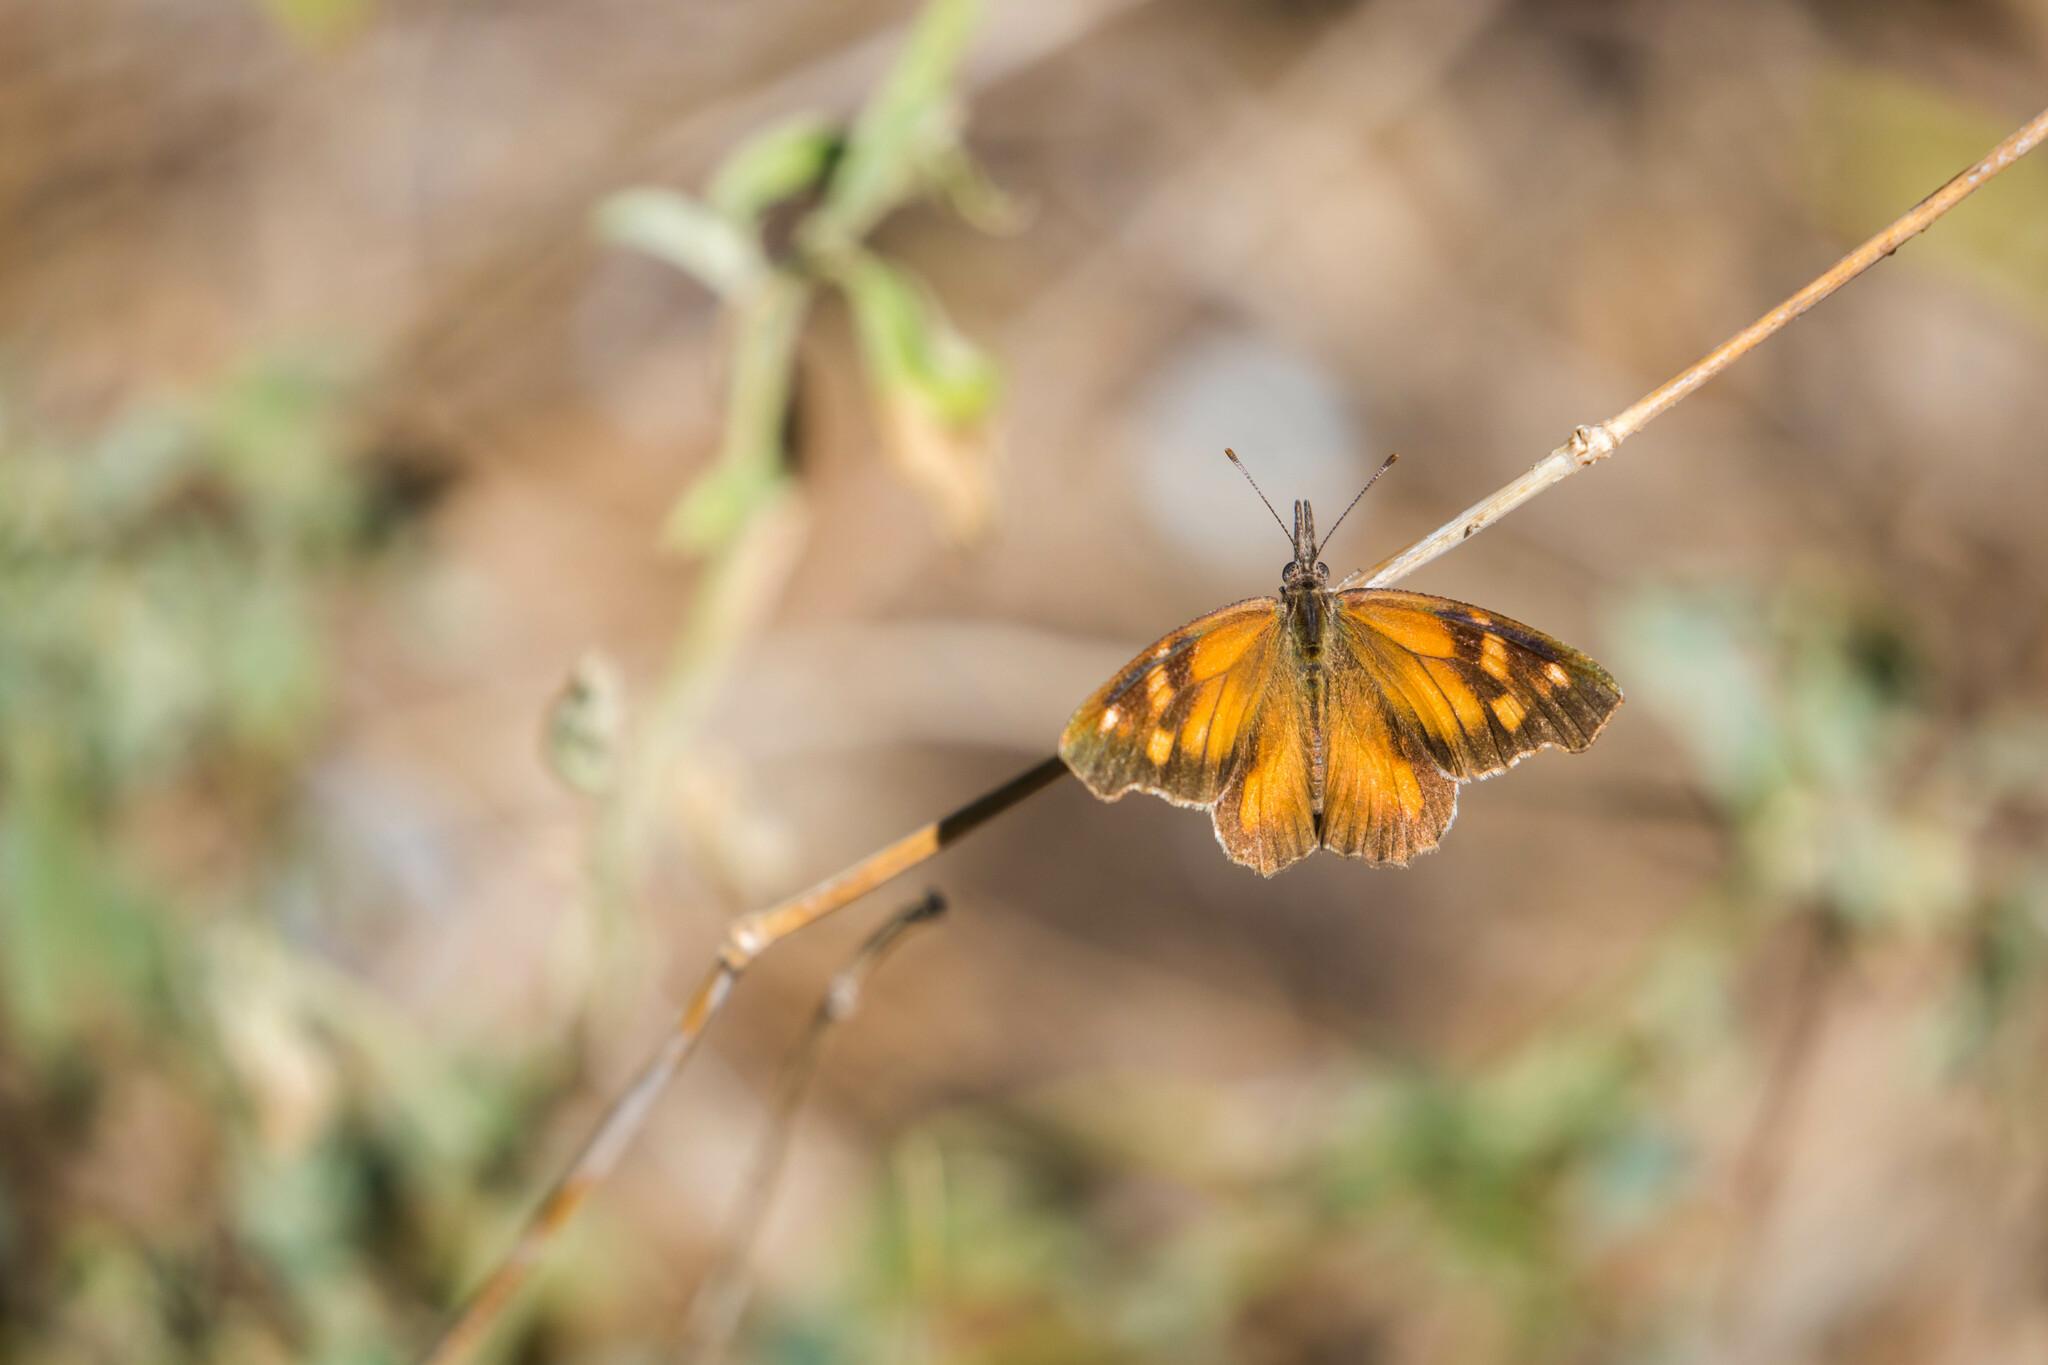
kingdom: Animalia
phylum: Arthropoda
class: Insecta
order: Lepidoptera
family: Nymphalidae
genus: Libytheana
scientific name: Libytheana carinenta
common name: American snout
